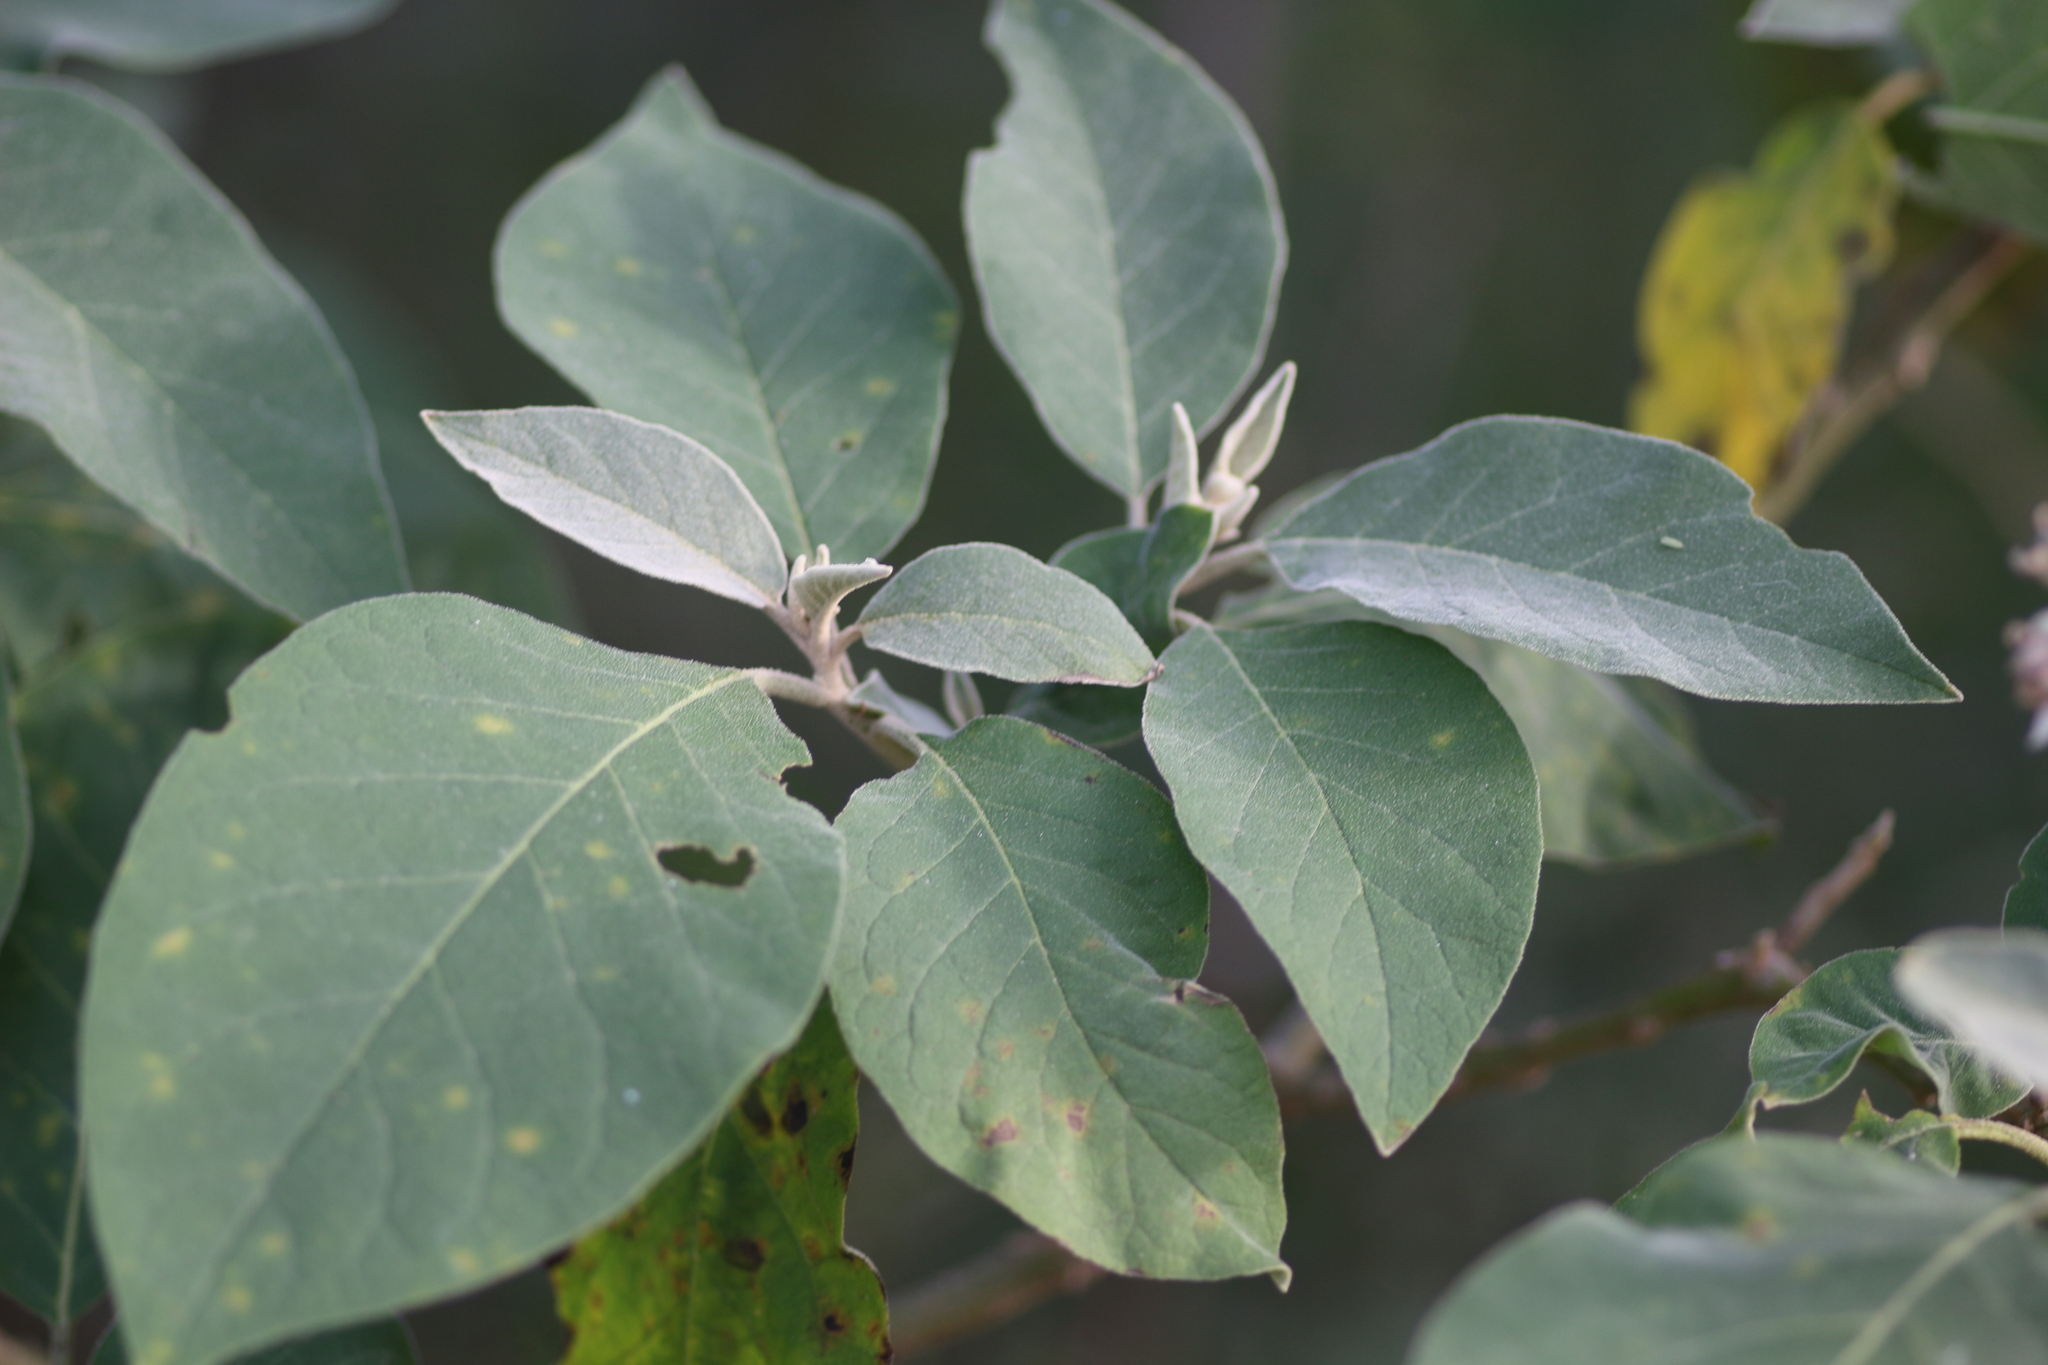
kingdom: Plantae
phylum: Tracheophyta
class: Magnoliopsida
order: Solanales
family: Solanaceae
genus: Solanum
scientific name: Solanum erianthum
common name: Tobacco-tree
